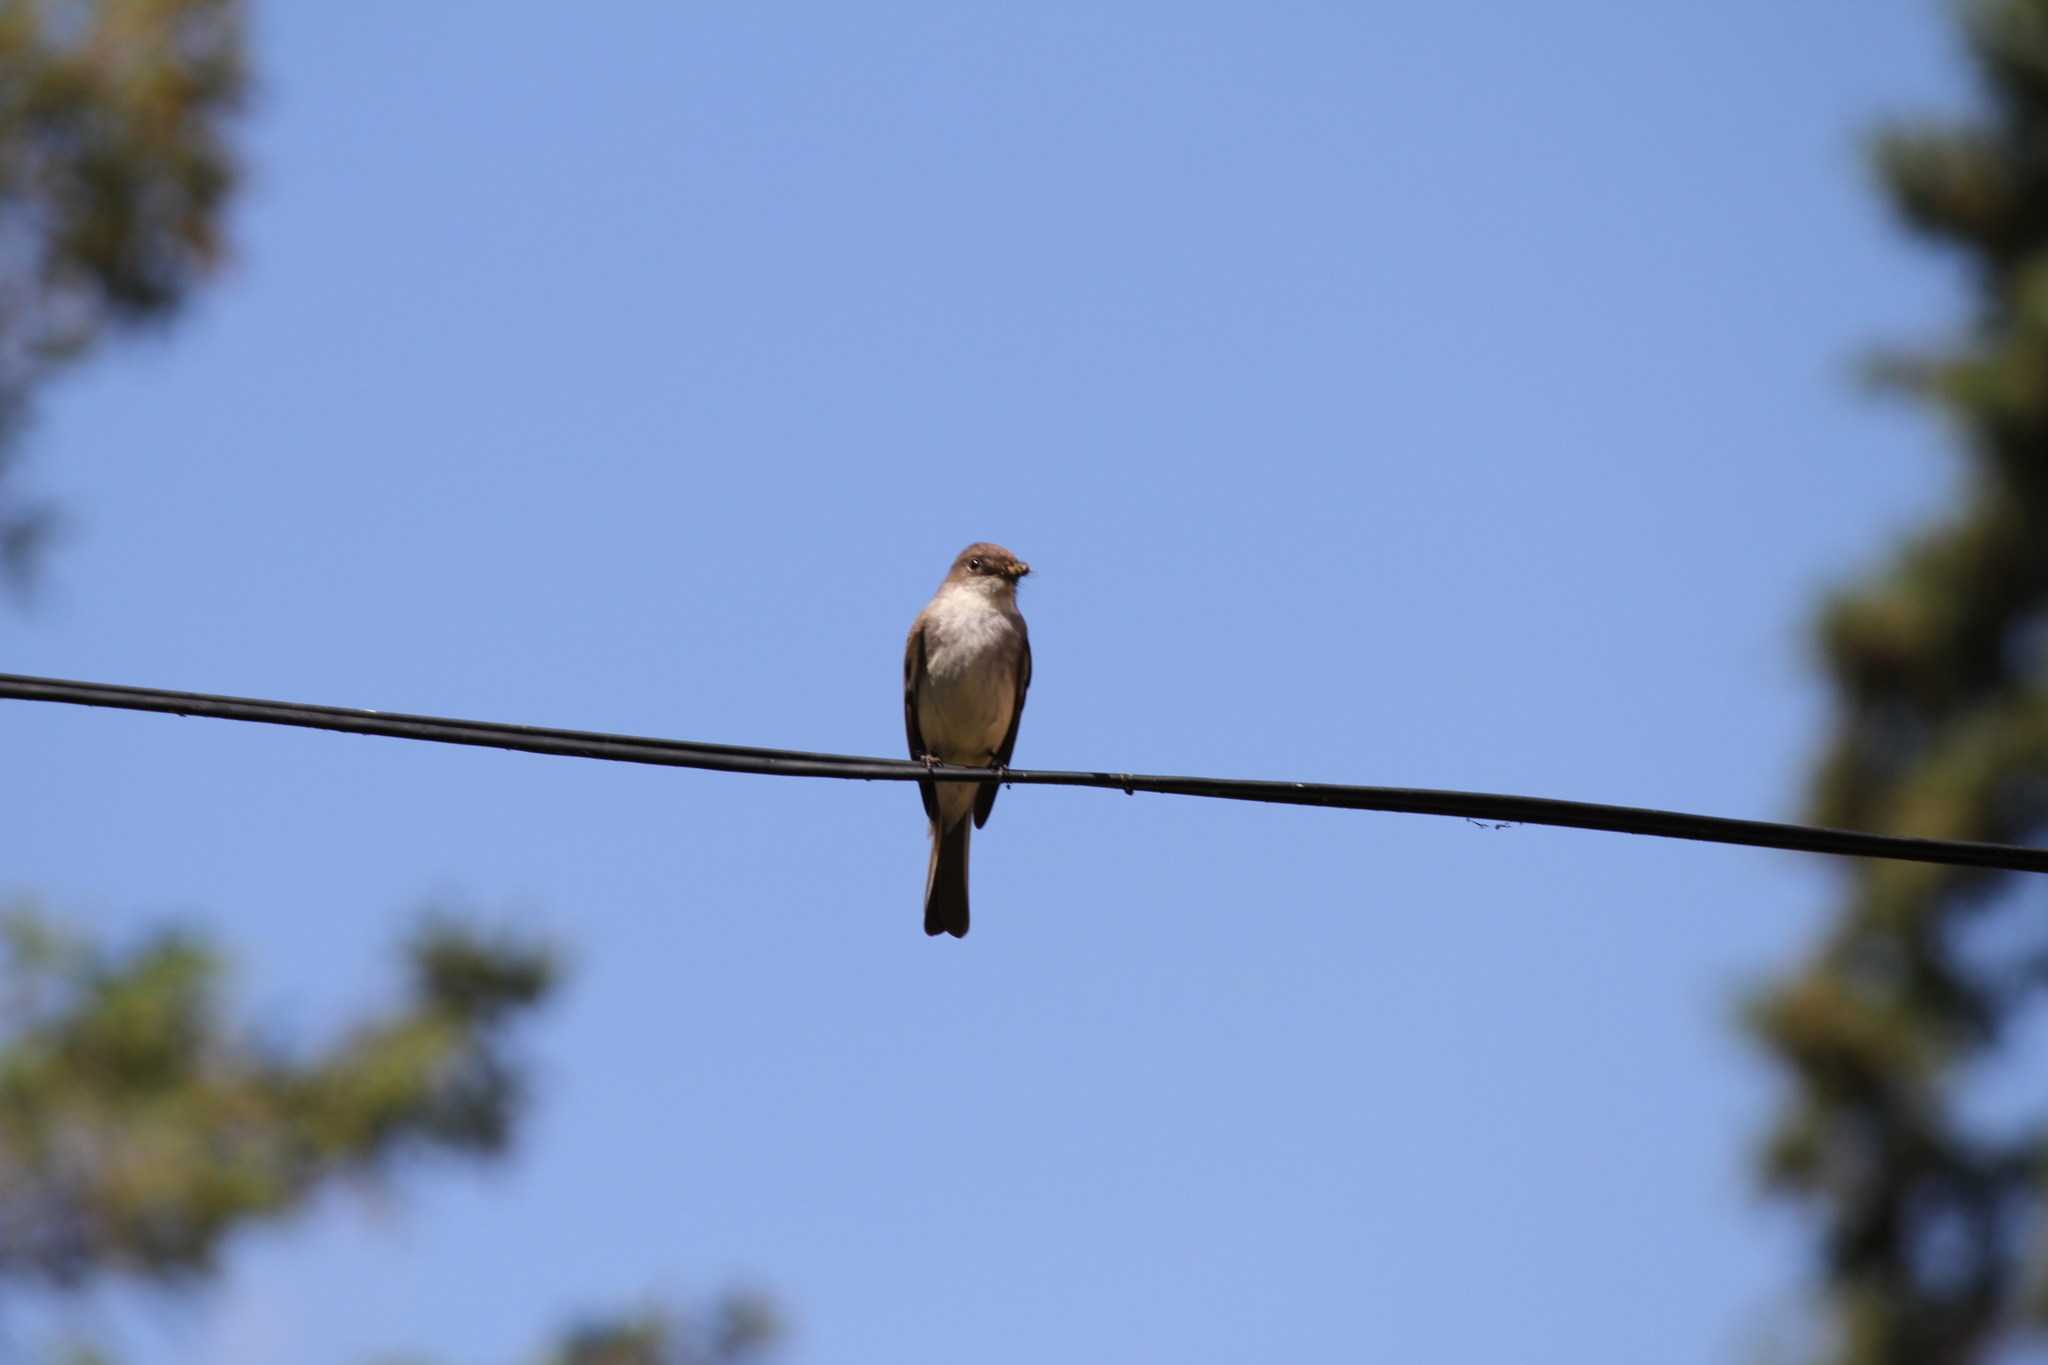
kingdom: Animalia
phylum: Chordata
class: Aves
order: Passeriformes
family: Tyrannidae
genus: Sayornis
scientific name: Sayornis phoebe
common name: Eastern phoebe
